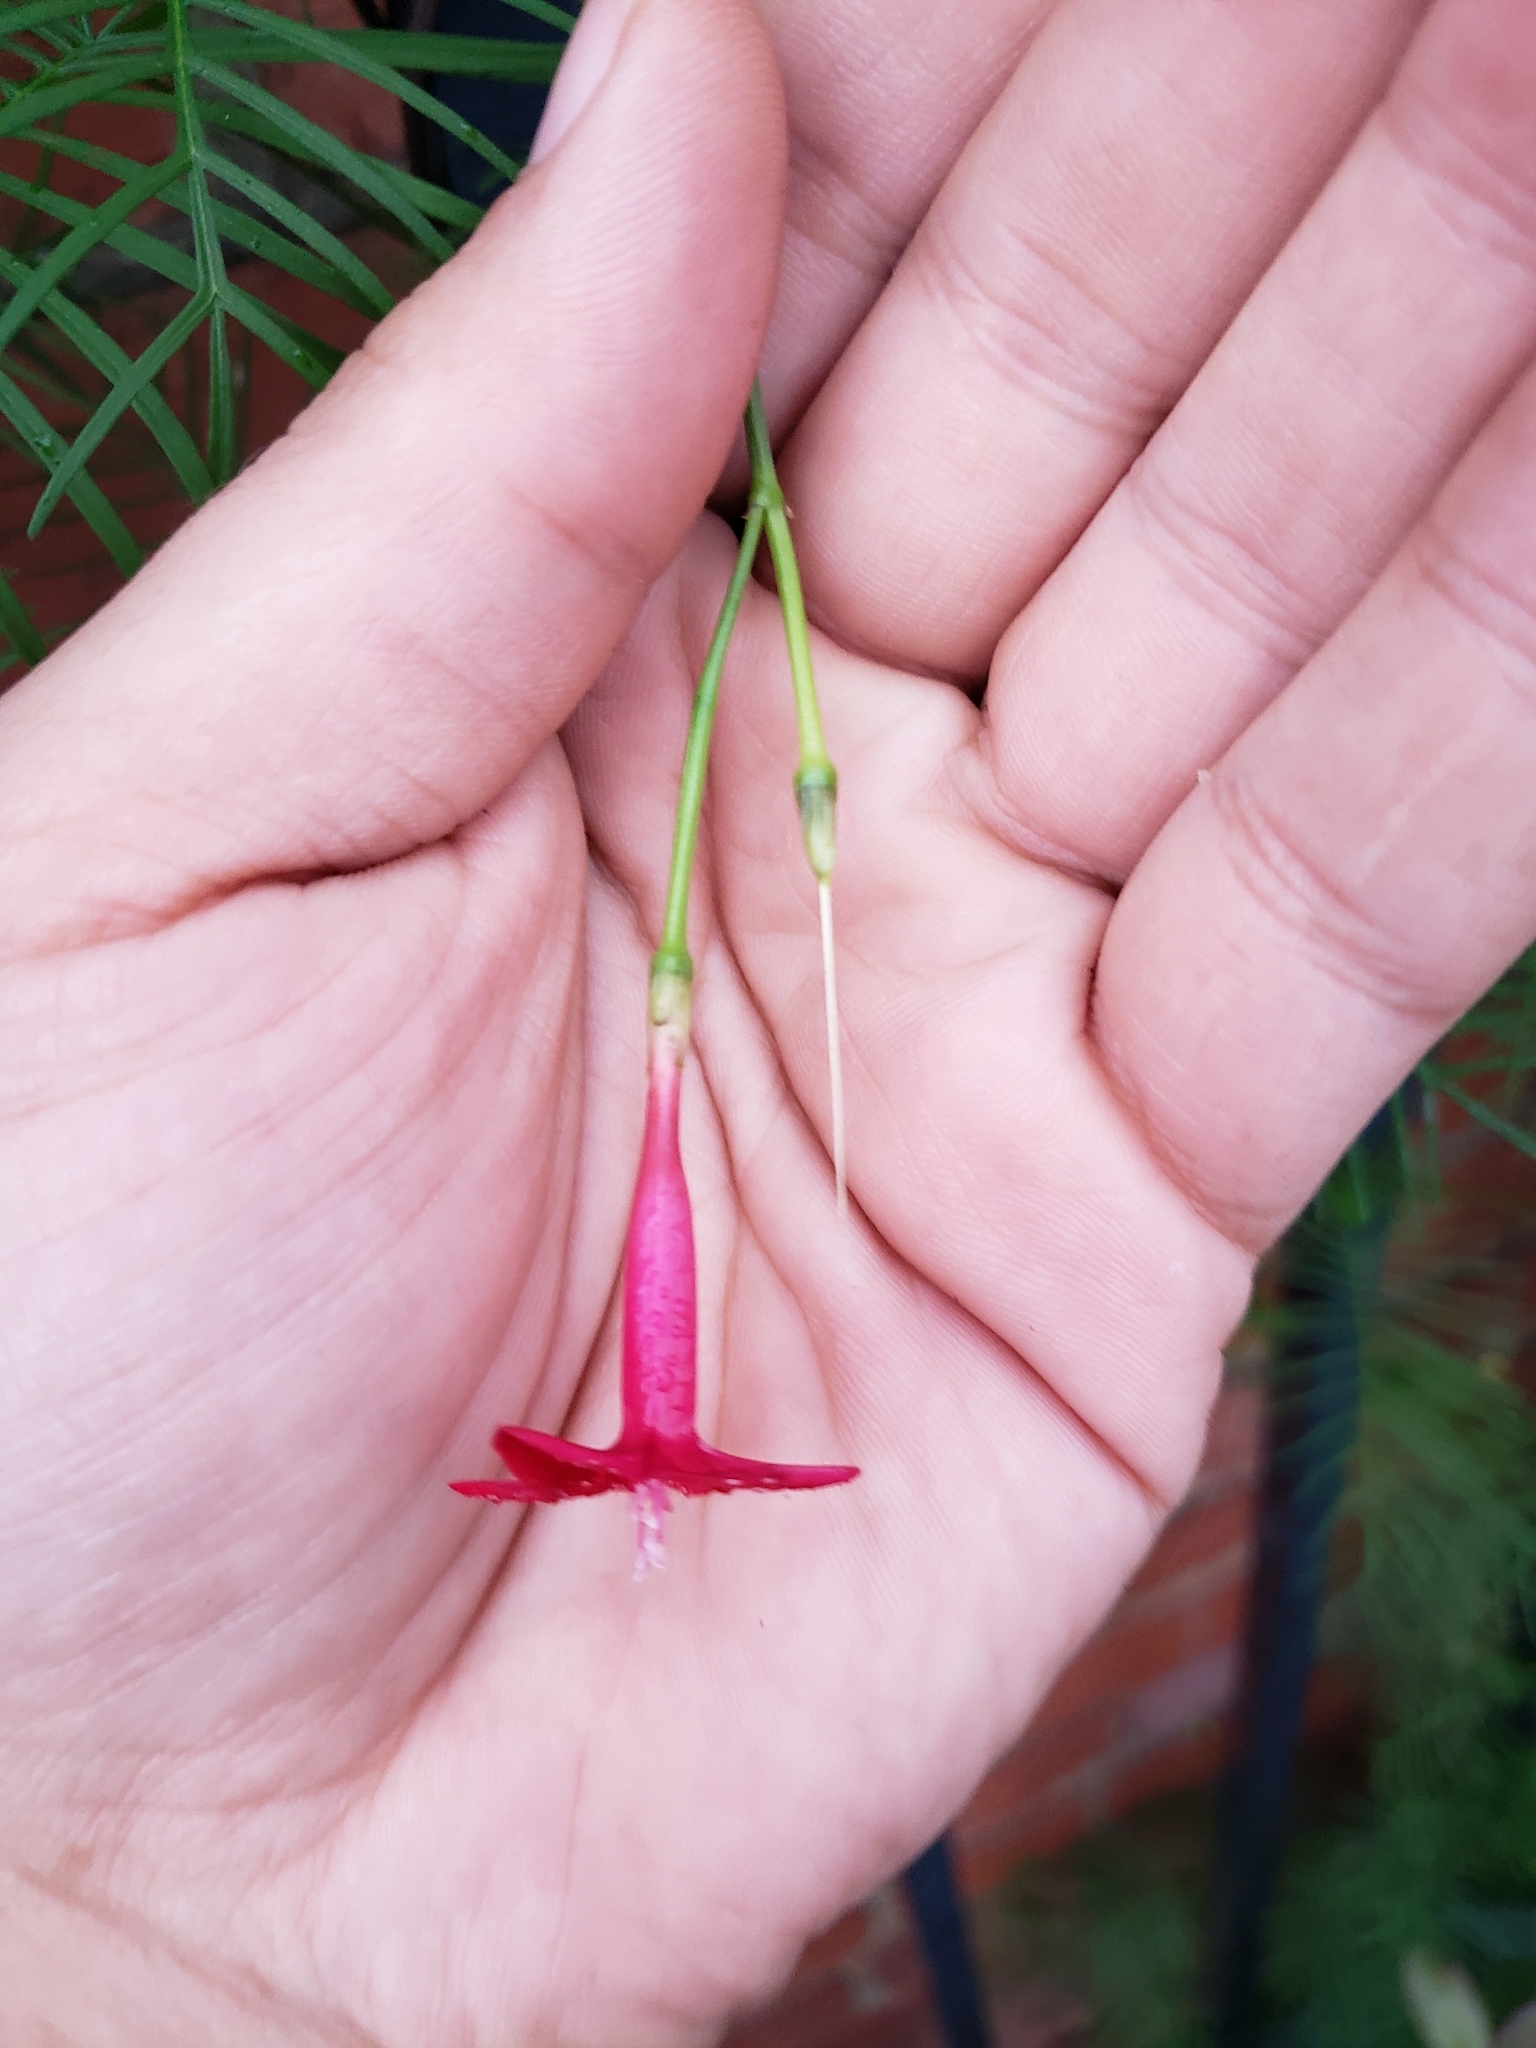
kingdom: Plantae
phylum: Tracheophyta
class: Magnoliopsida
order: Solanales
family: Convolvulaceae
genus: Ipomoea
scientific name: Ipomoea quamoclit
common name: Cypress vine
